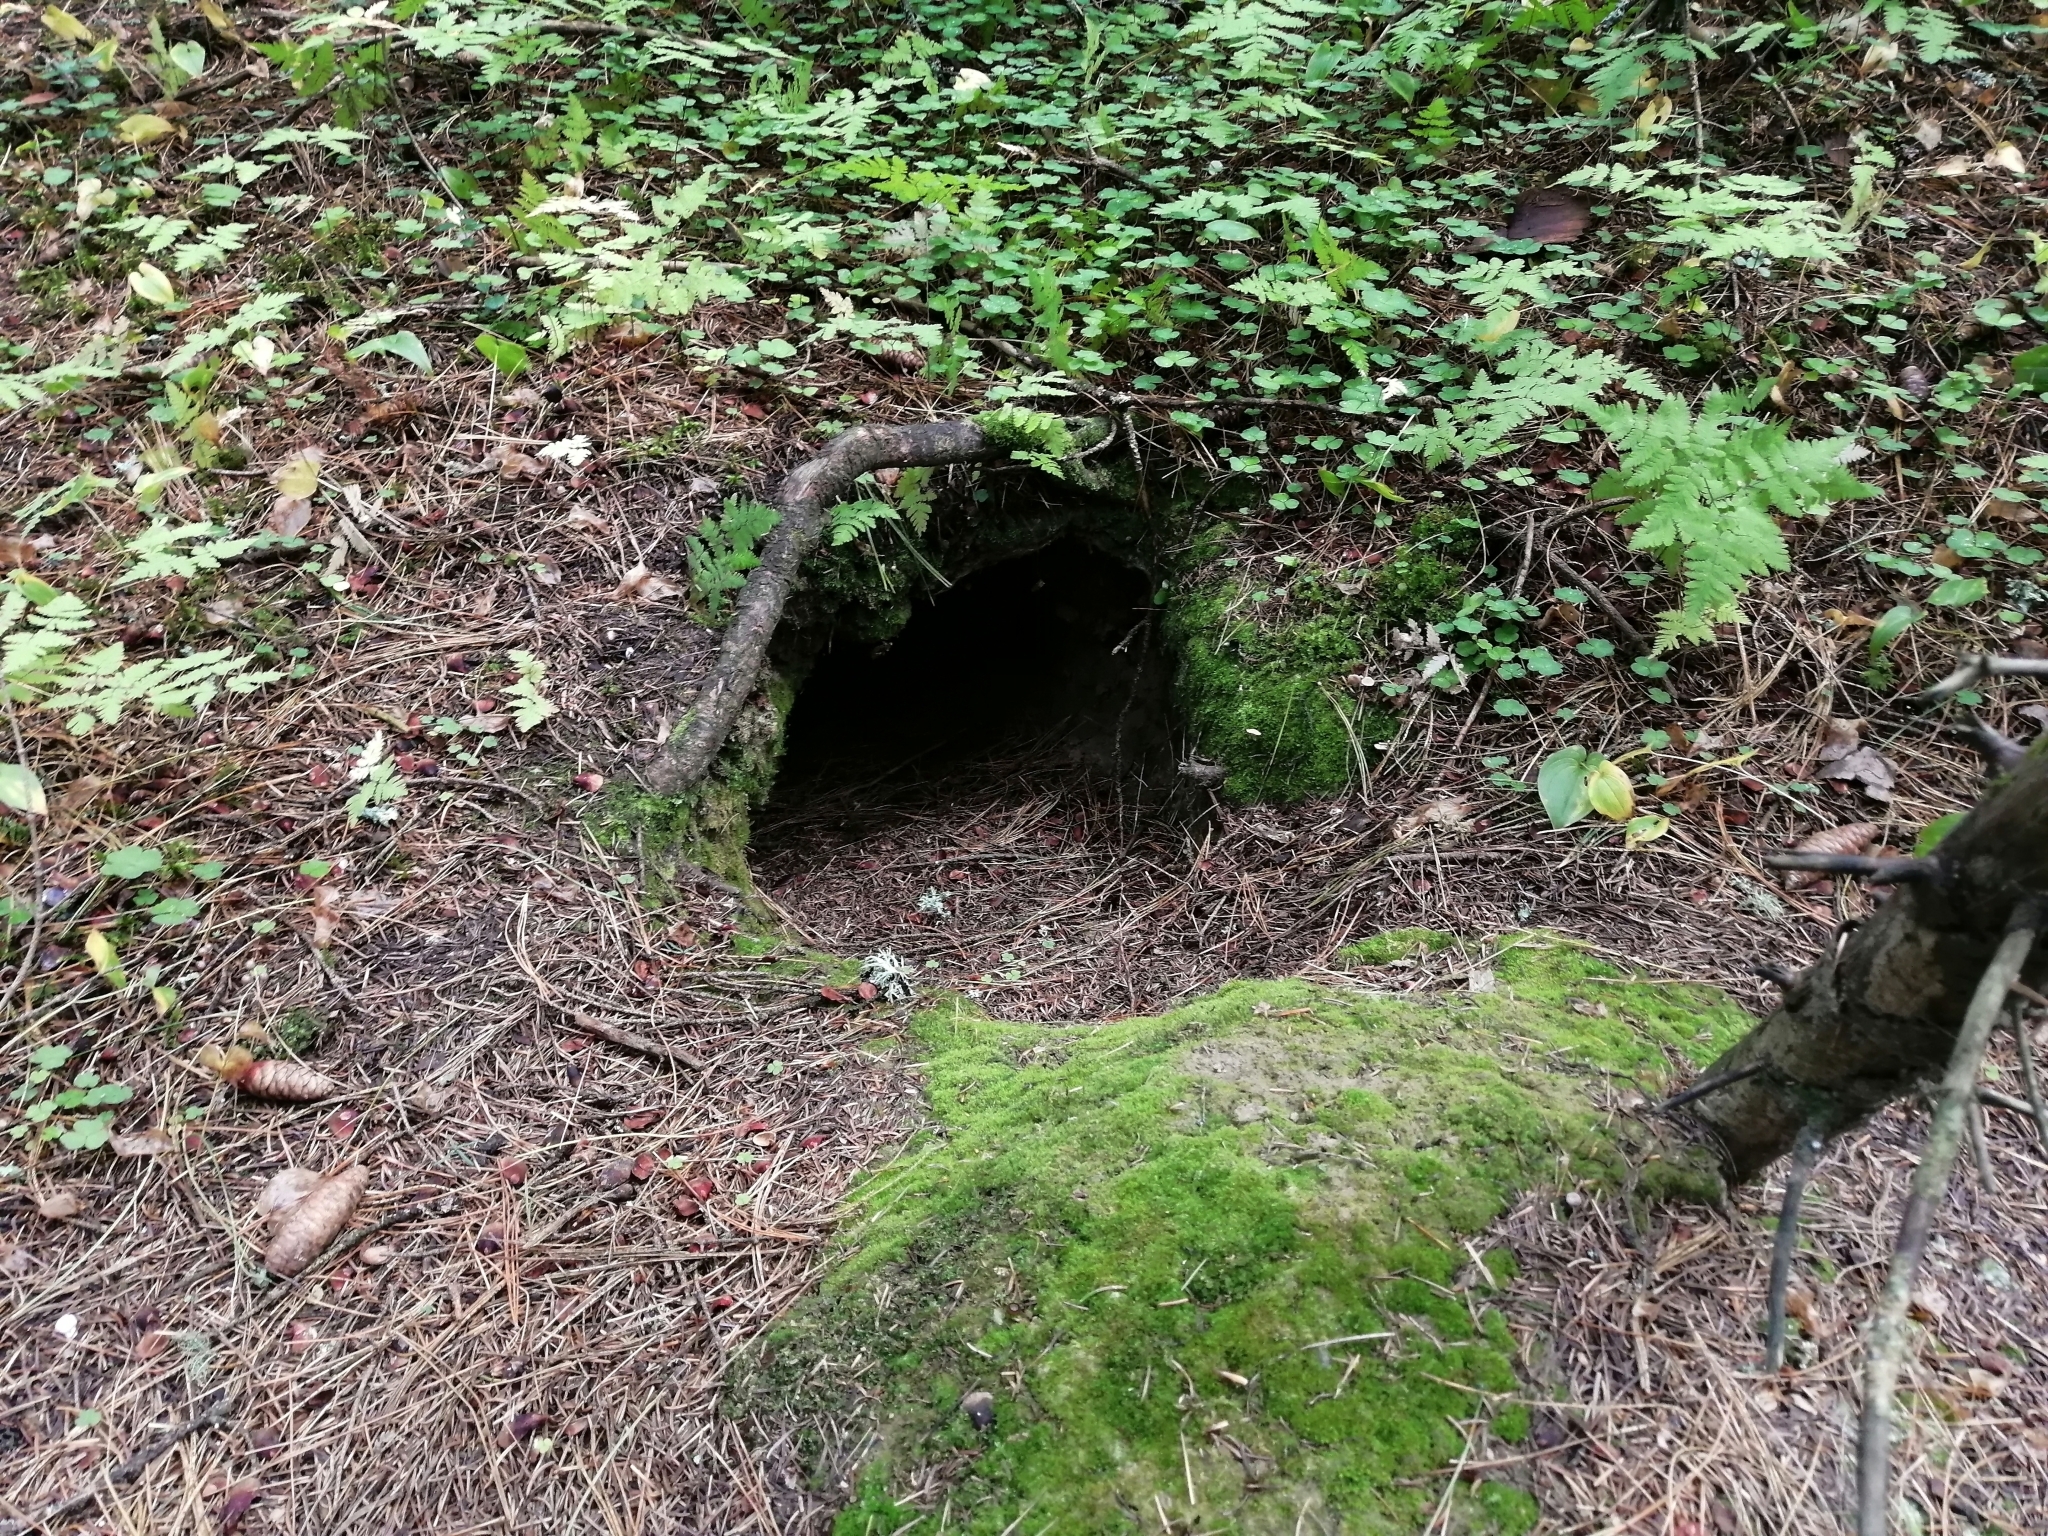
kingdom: Animalia
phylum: Chordata
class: Mammalia
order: Carnivora
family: Mustelidae
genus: Meles
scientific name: Meles leucurus
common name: Asian badger
